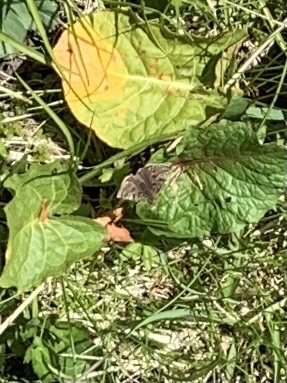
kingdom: Animalia
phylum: Arthropoda
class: Insecta
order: Lepidoptera
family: Hesperiidae
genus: Erynnis
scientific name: Erynnis tages
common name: Dingy skipper
